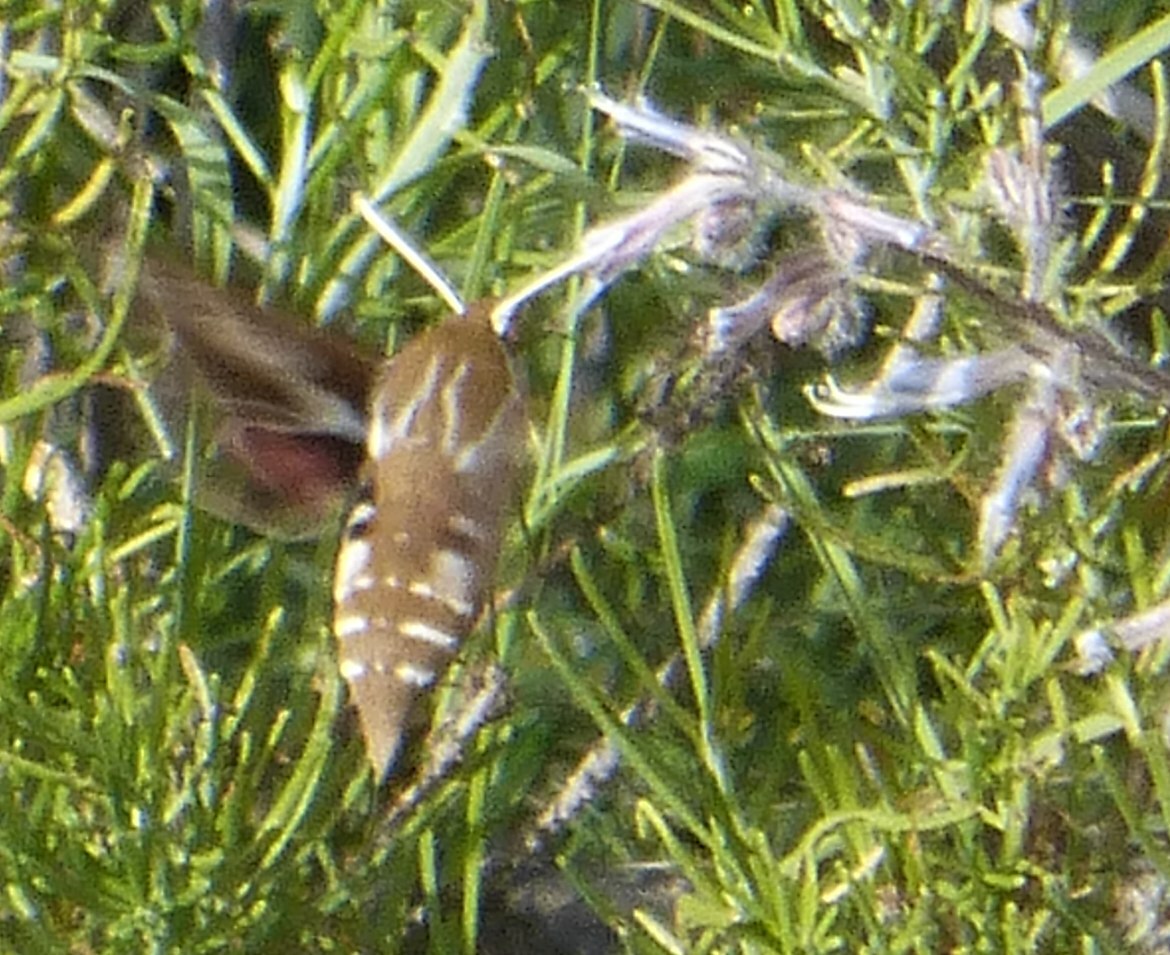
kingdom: Animalia
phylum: Arthropoda
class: Insecta
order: Lepidoptera
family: Sphingidae
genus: Hyles
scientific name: Hyles tithymali
